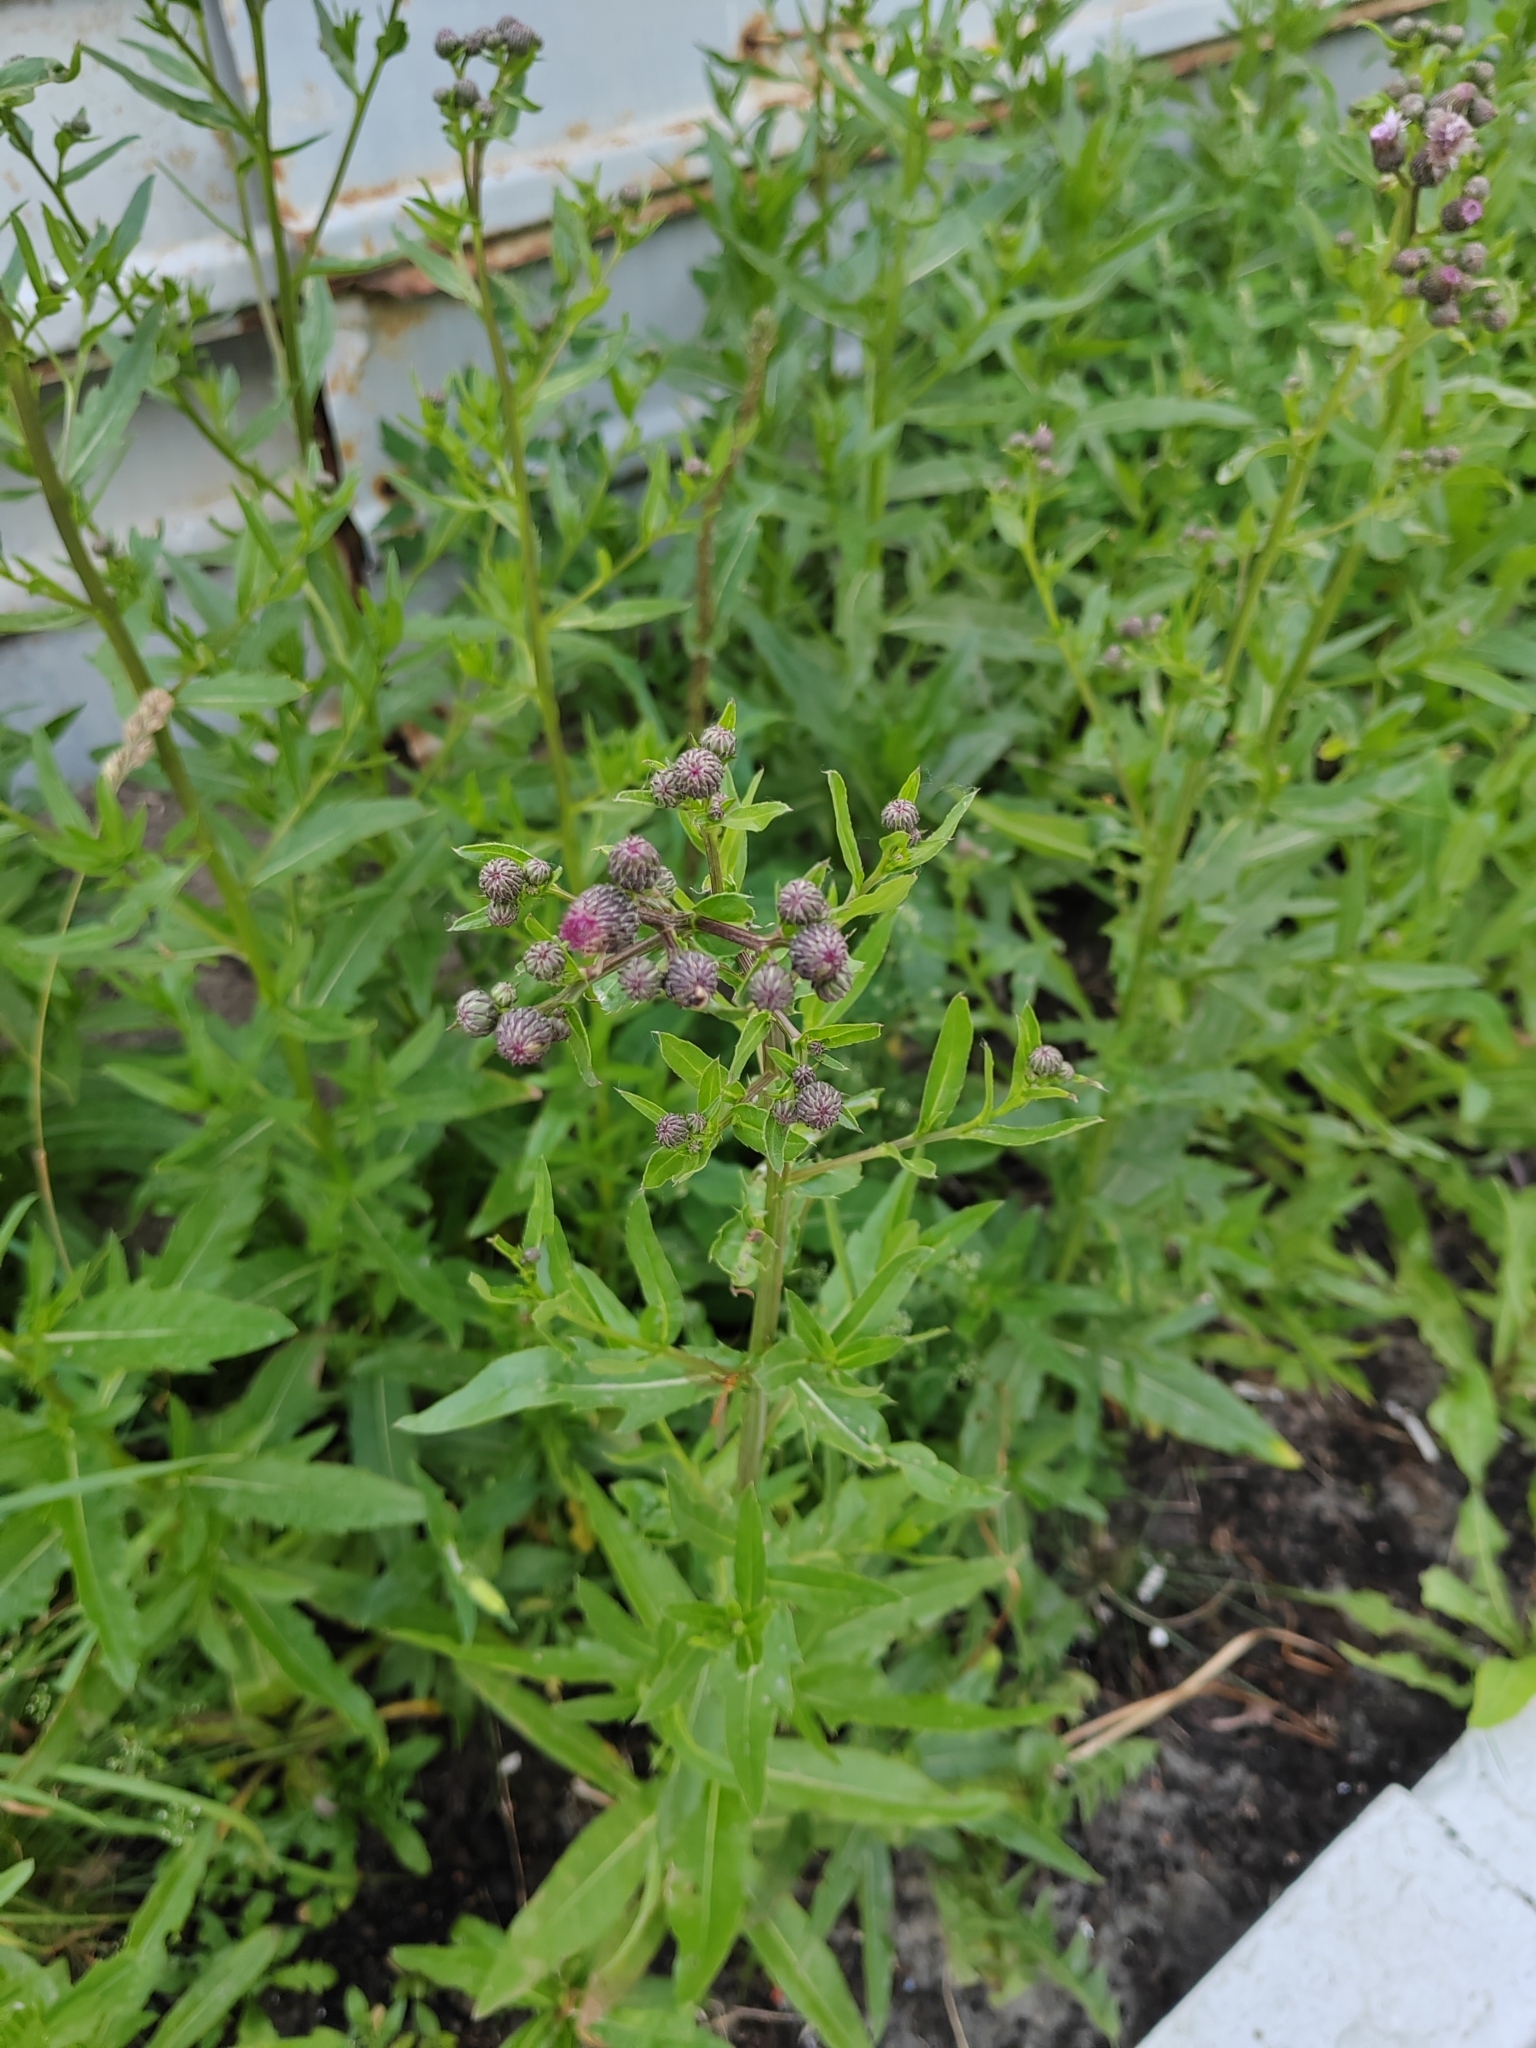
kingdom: Plantae
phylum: Tracheophyta
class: Magnoliopsida
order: Asterales
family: Asteraceae
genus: Cirsium
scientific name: Cirsium arvense
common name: Creeping thistle
